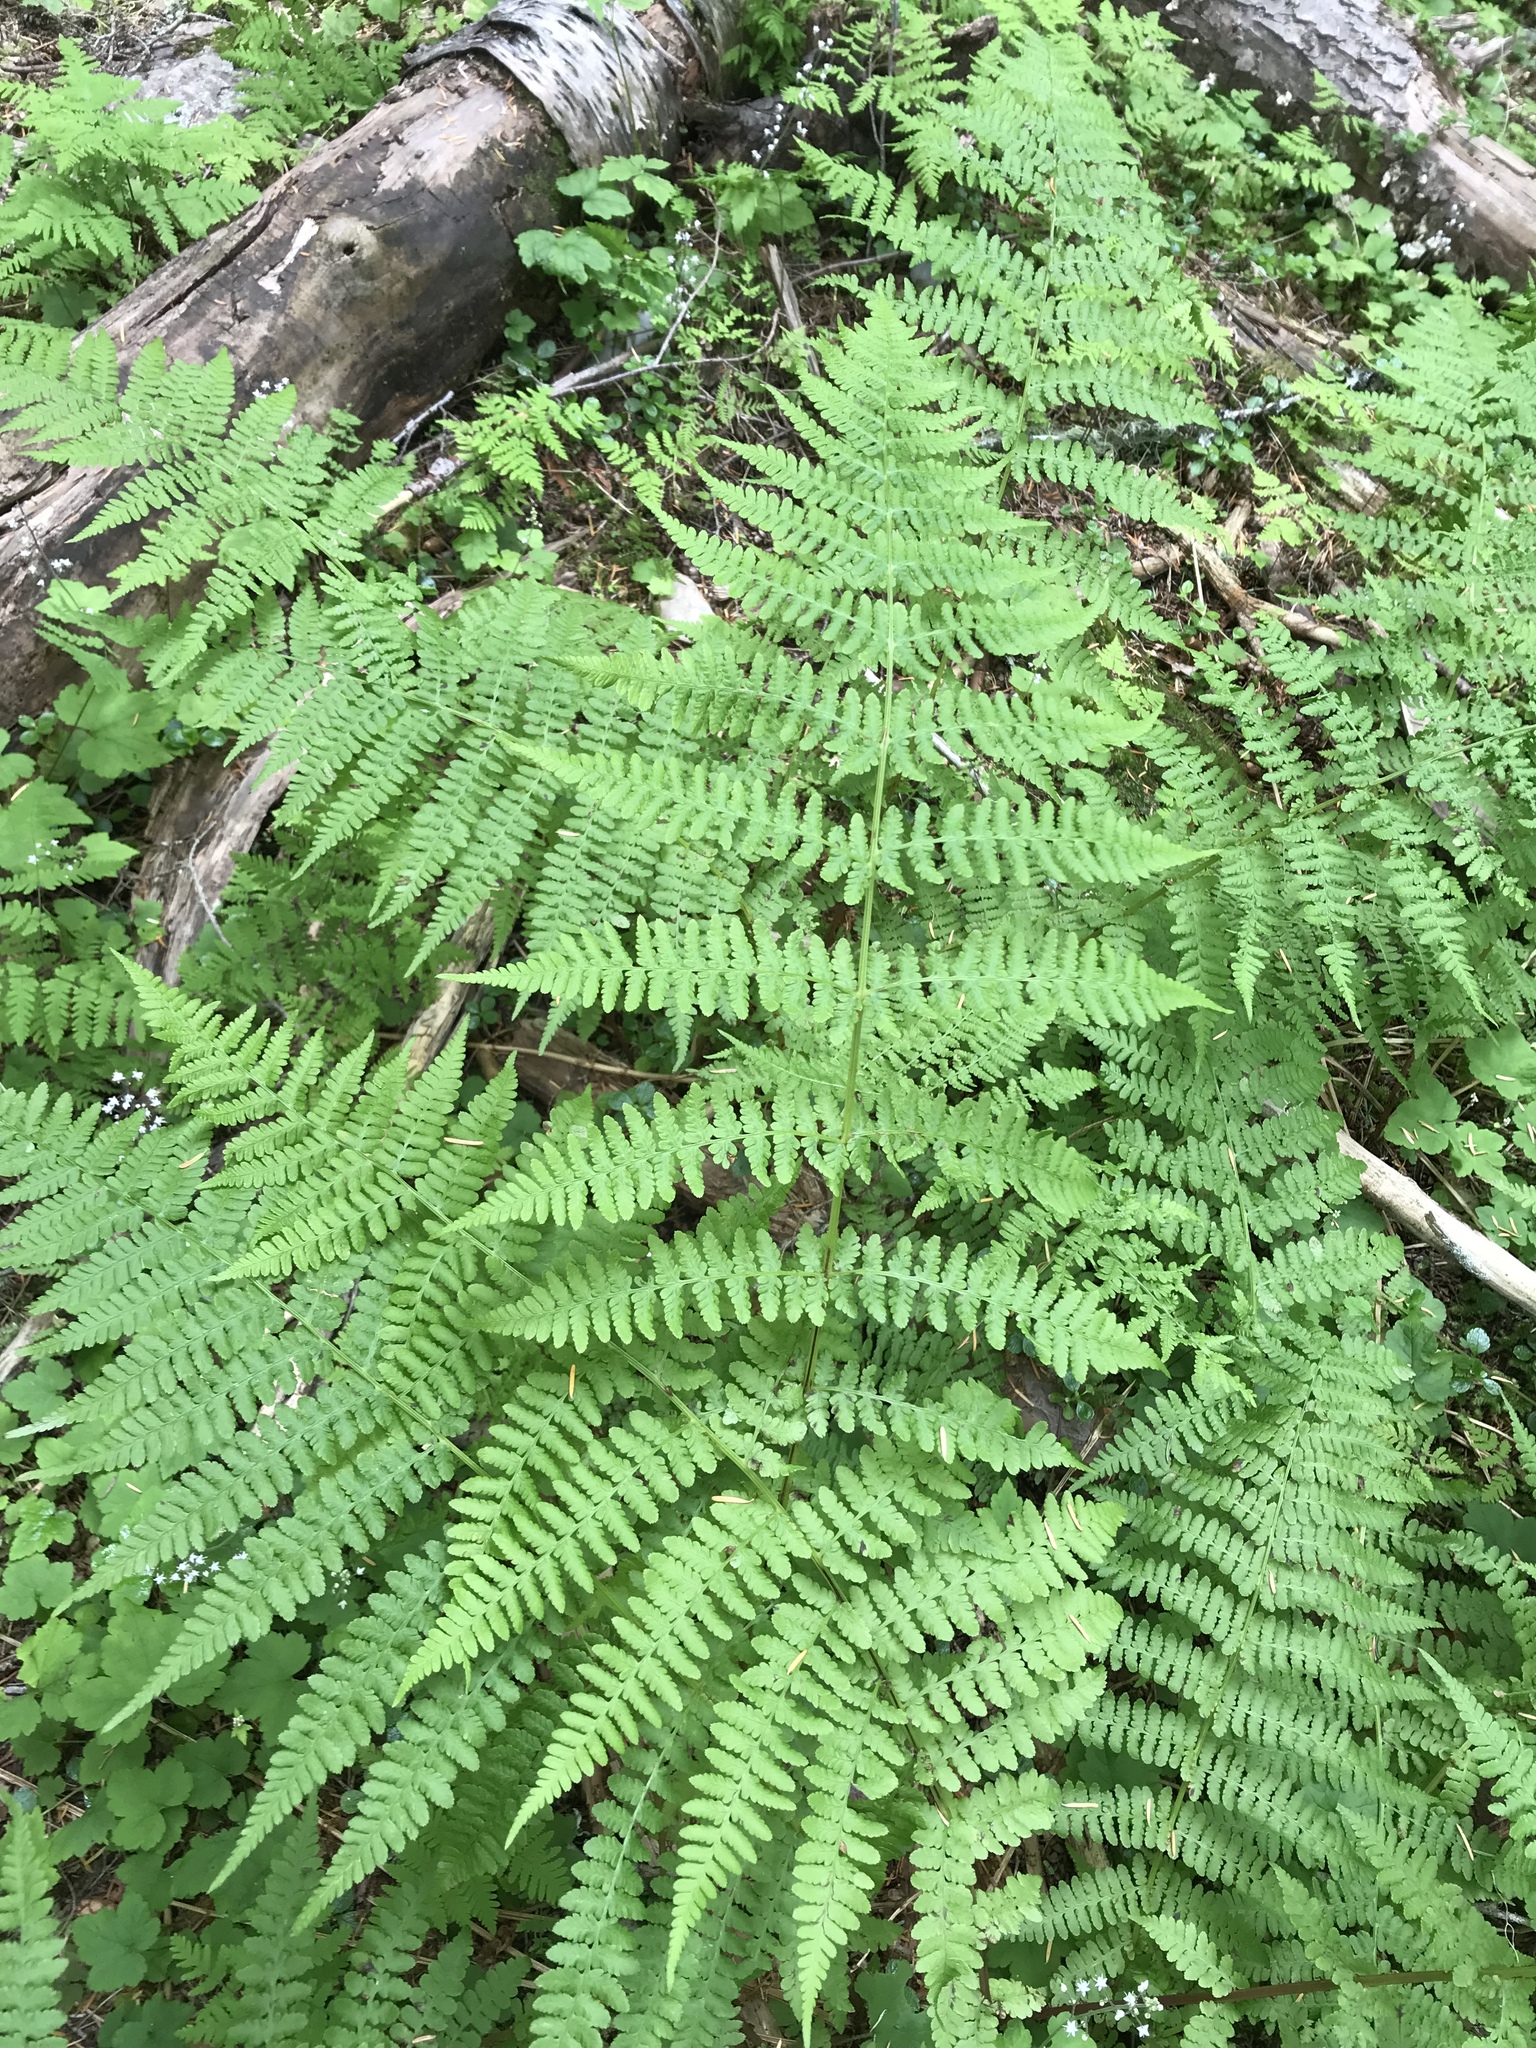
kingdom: Plantae
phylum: Tracheophyta
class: Polypodiopsida
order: Polypodiales
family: Athyriaceae
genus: Athyrium
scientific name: Athyrium cyclosorum
